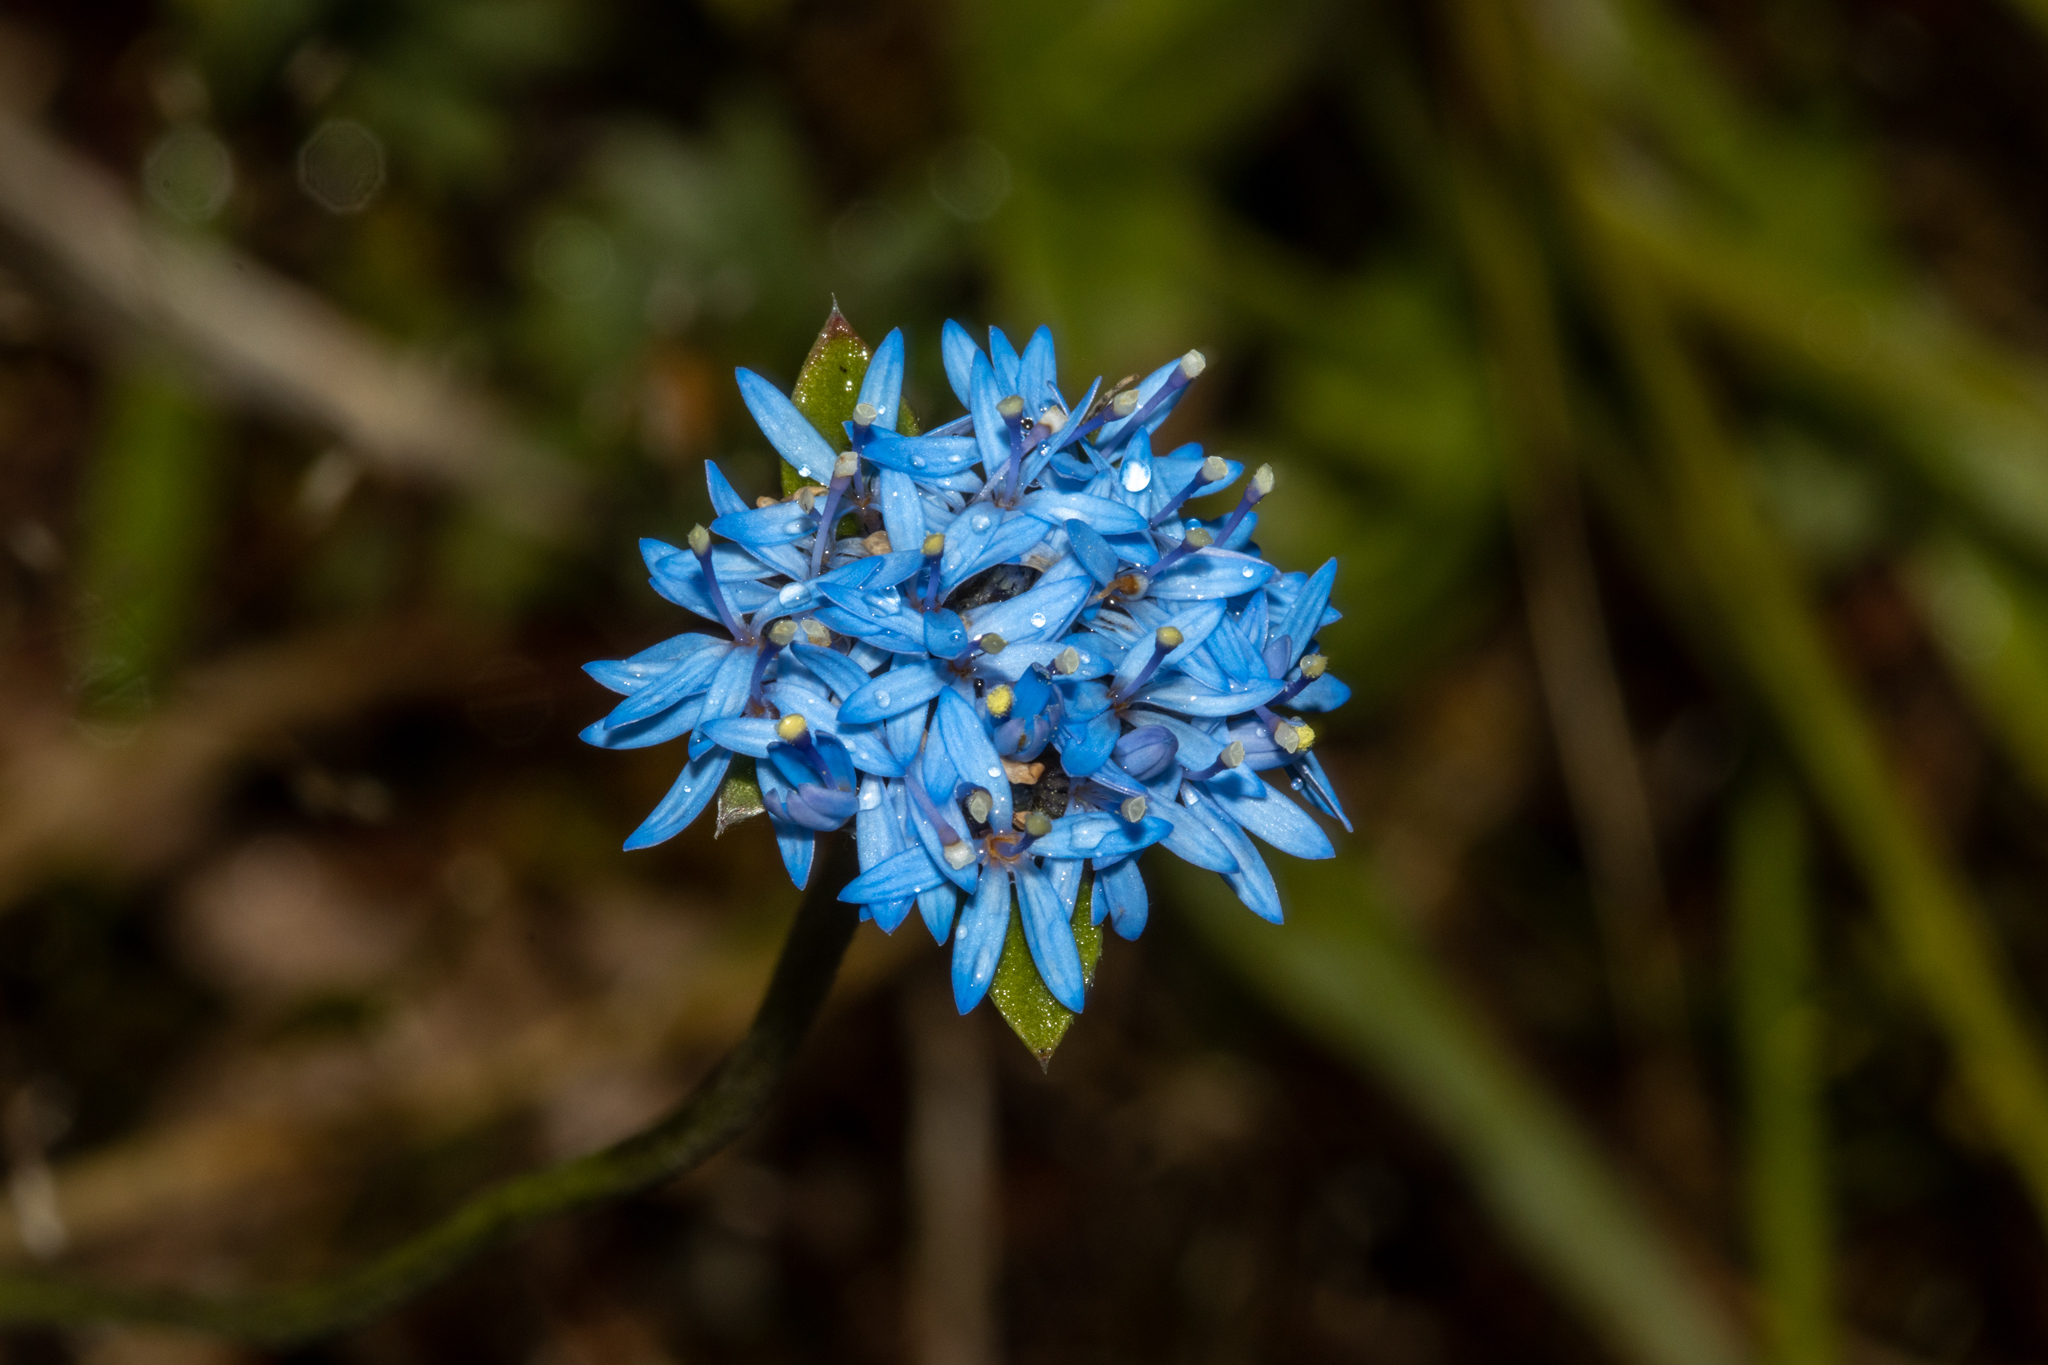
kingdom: Plantae
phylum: Tracheophyta
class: Magnoliopsida
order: Asterales
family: Goodeniaceae
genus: Brunonia
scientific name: Brunonia australis
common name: Blue pincushion
